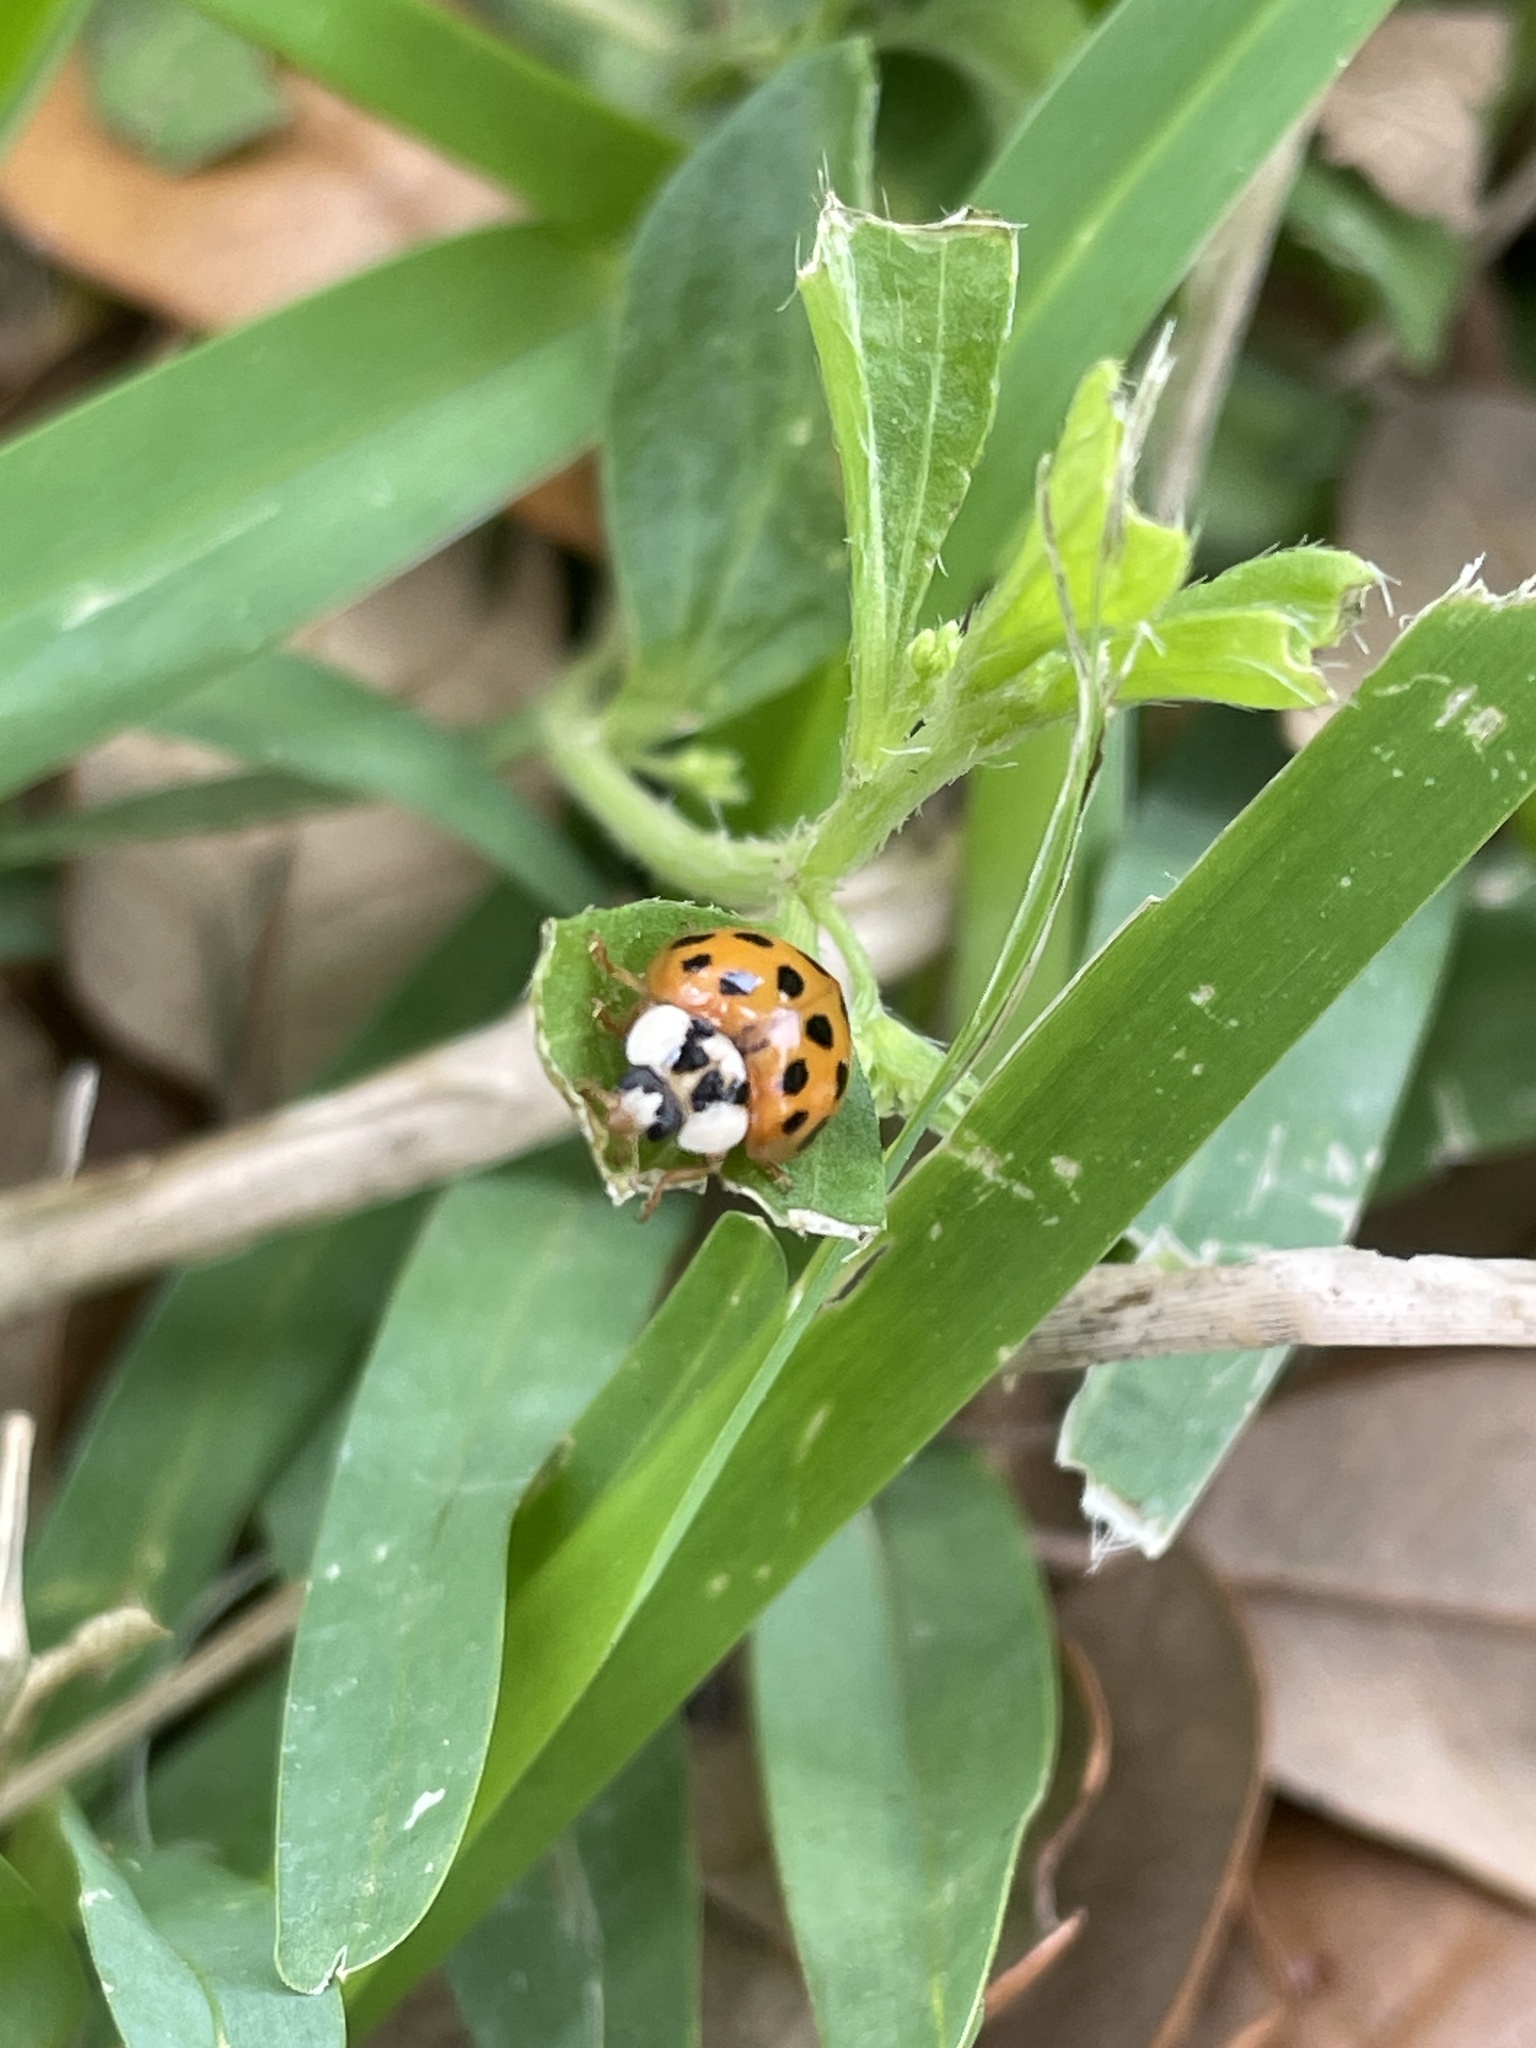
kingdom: Animalia
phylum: Arthropoda
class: Insecta
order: Coleoptera
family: Coccinellidae
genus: Harmonia
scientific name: Harmonia axyridis
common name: Harlequin ladybird
